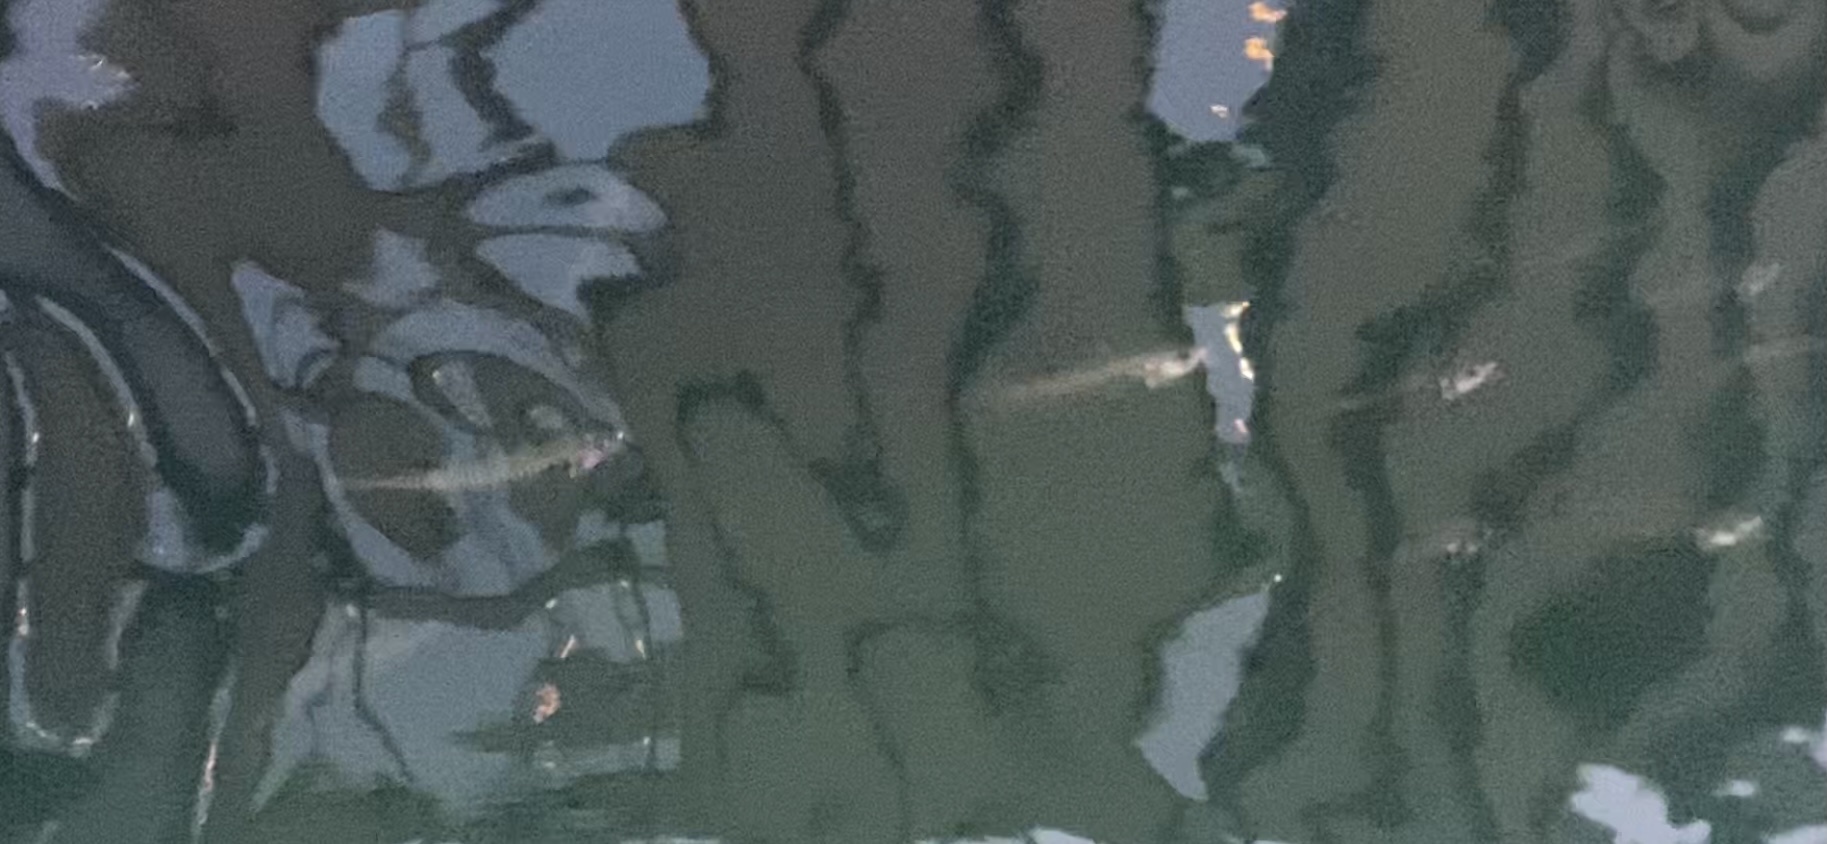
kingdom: Animalia
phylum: Chordata
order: Perciformes
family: Scombridae
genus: Scomber
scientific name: Scomber scombrus
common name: Mackerel
